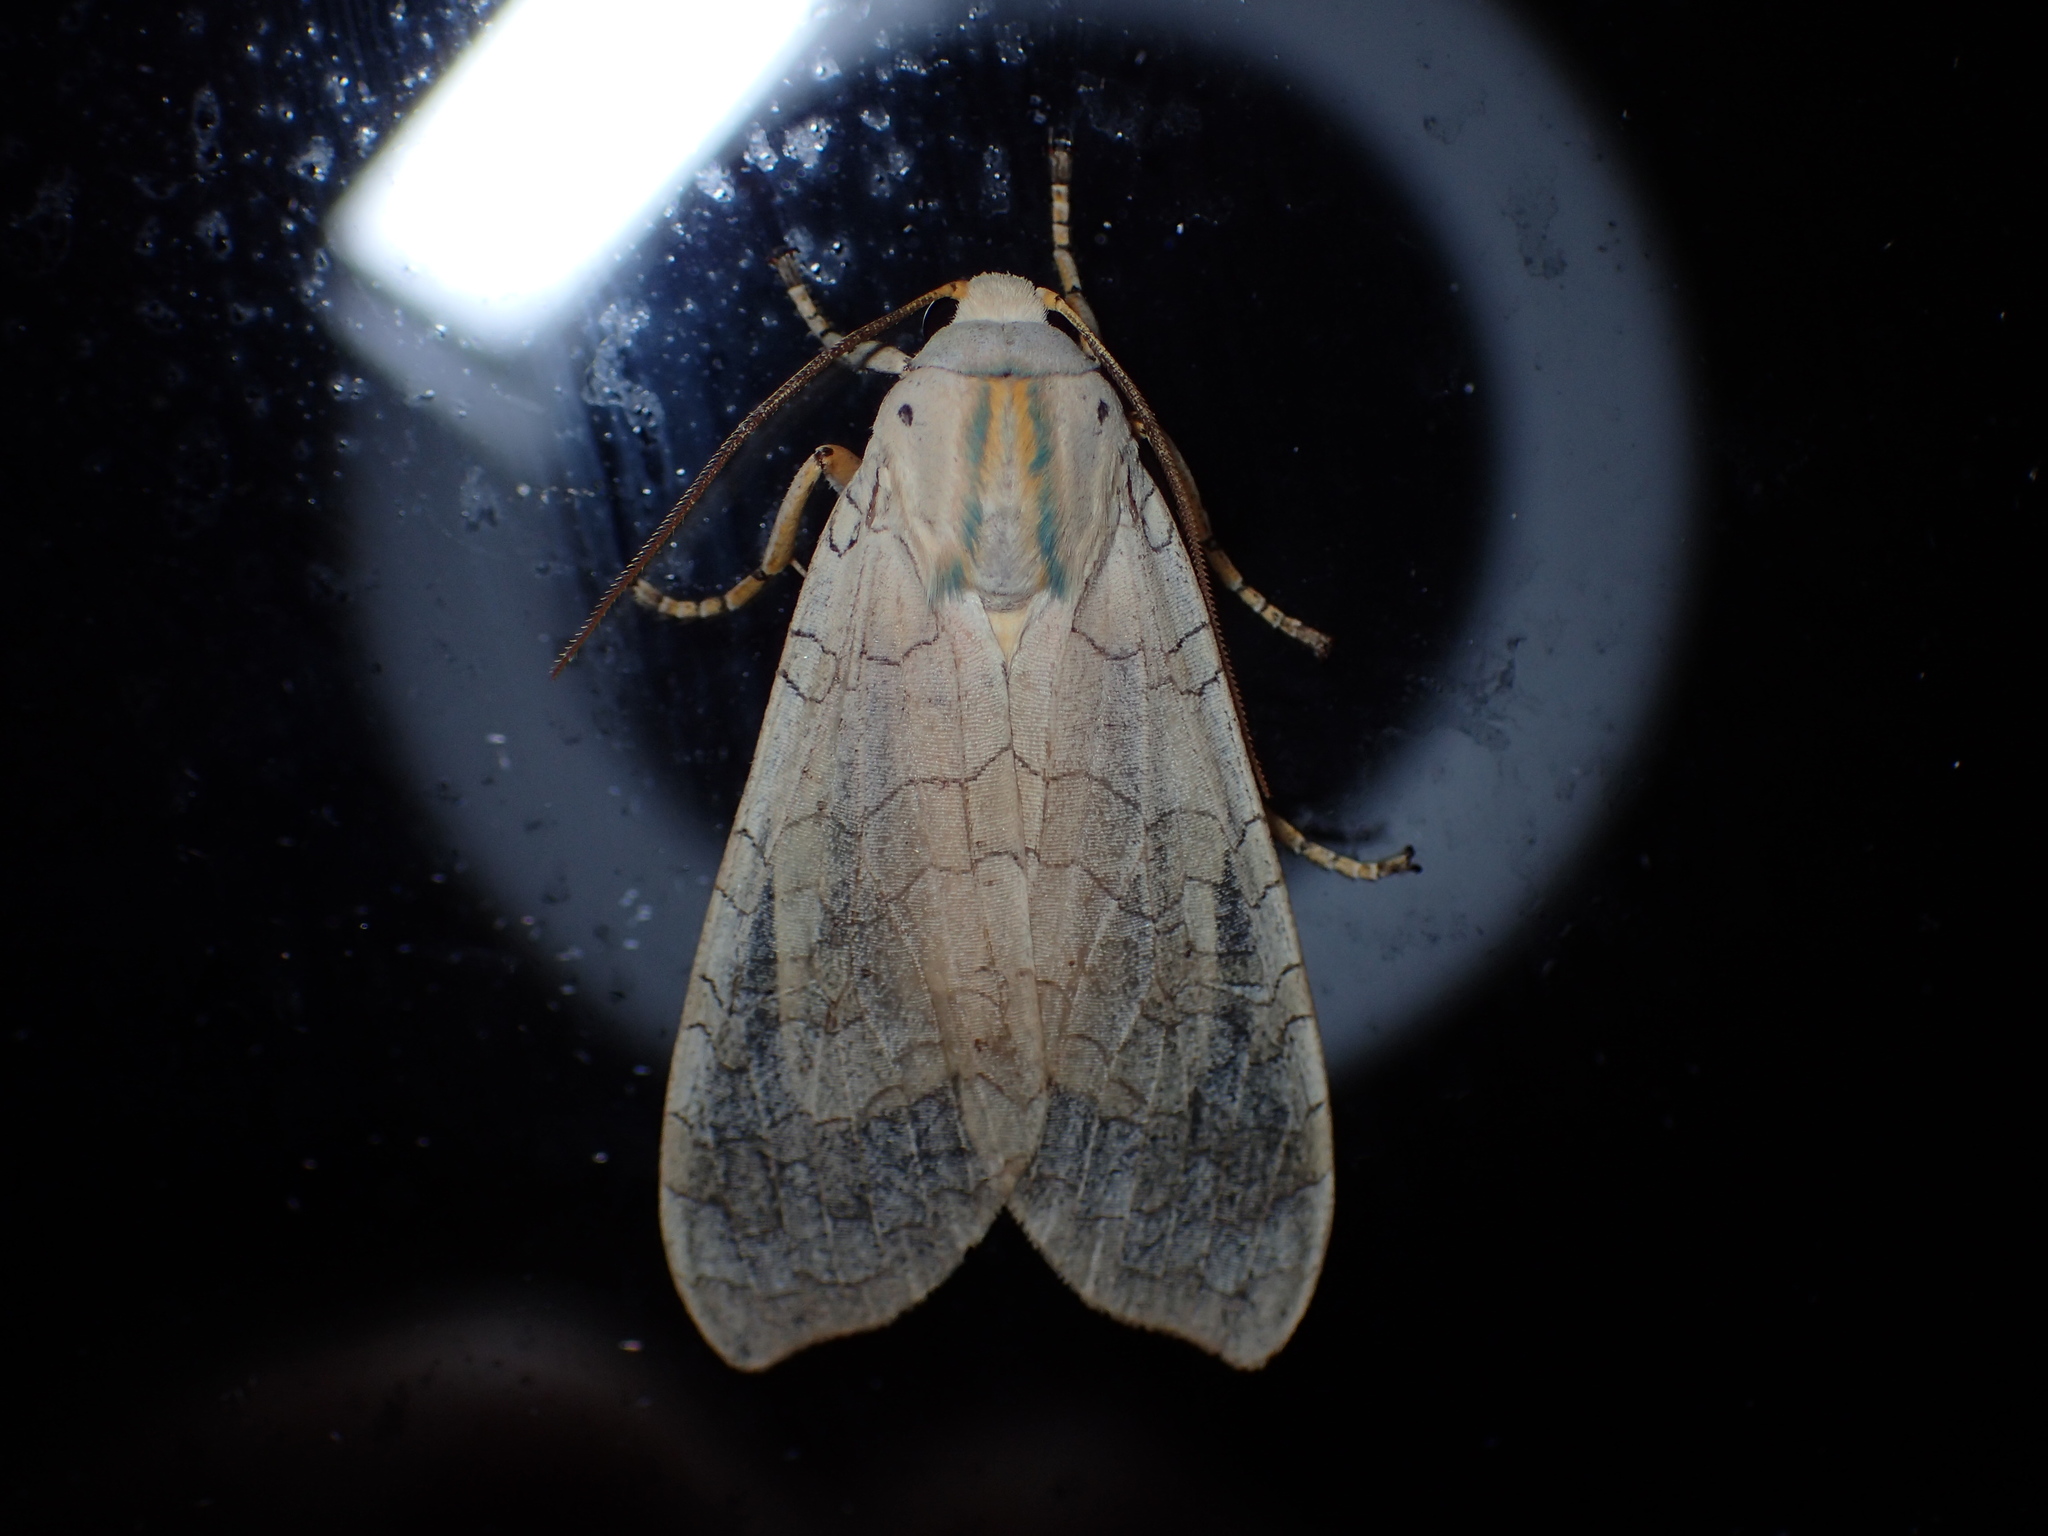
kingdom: Animalia
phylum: Arthropoda
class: Insecta
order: Lepidoptera
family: Erebidae
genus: Halysidota
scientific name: Halysidota
